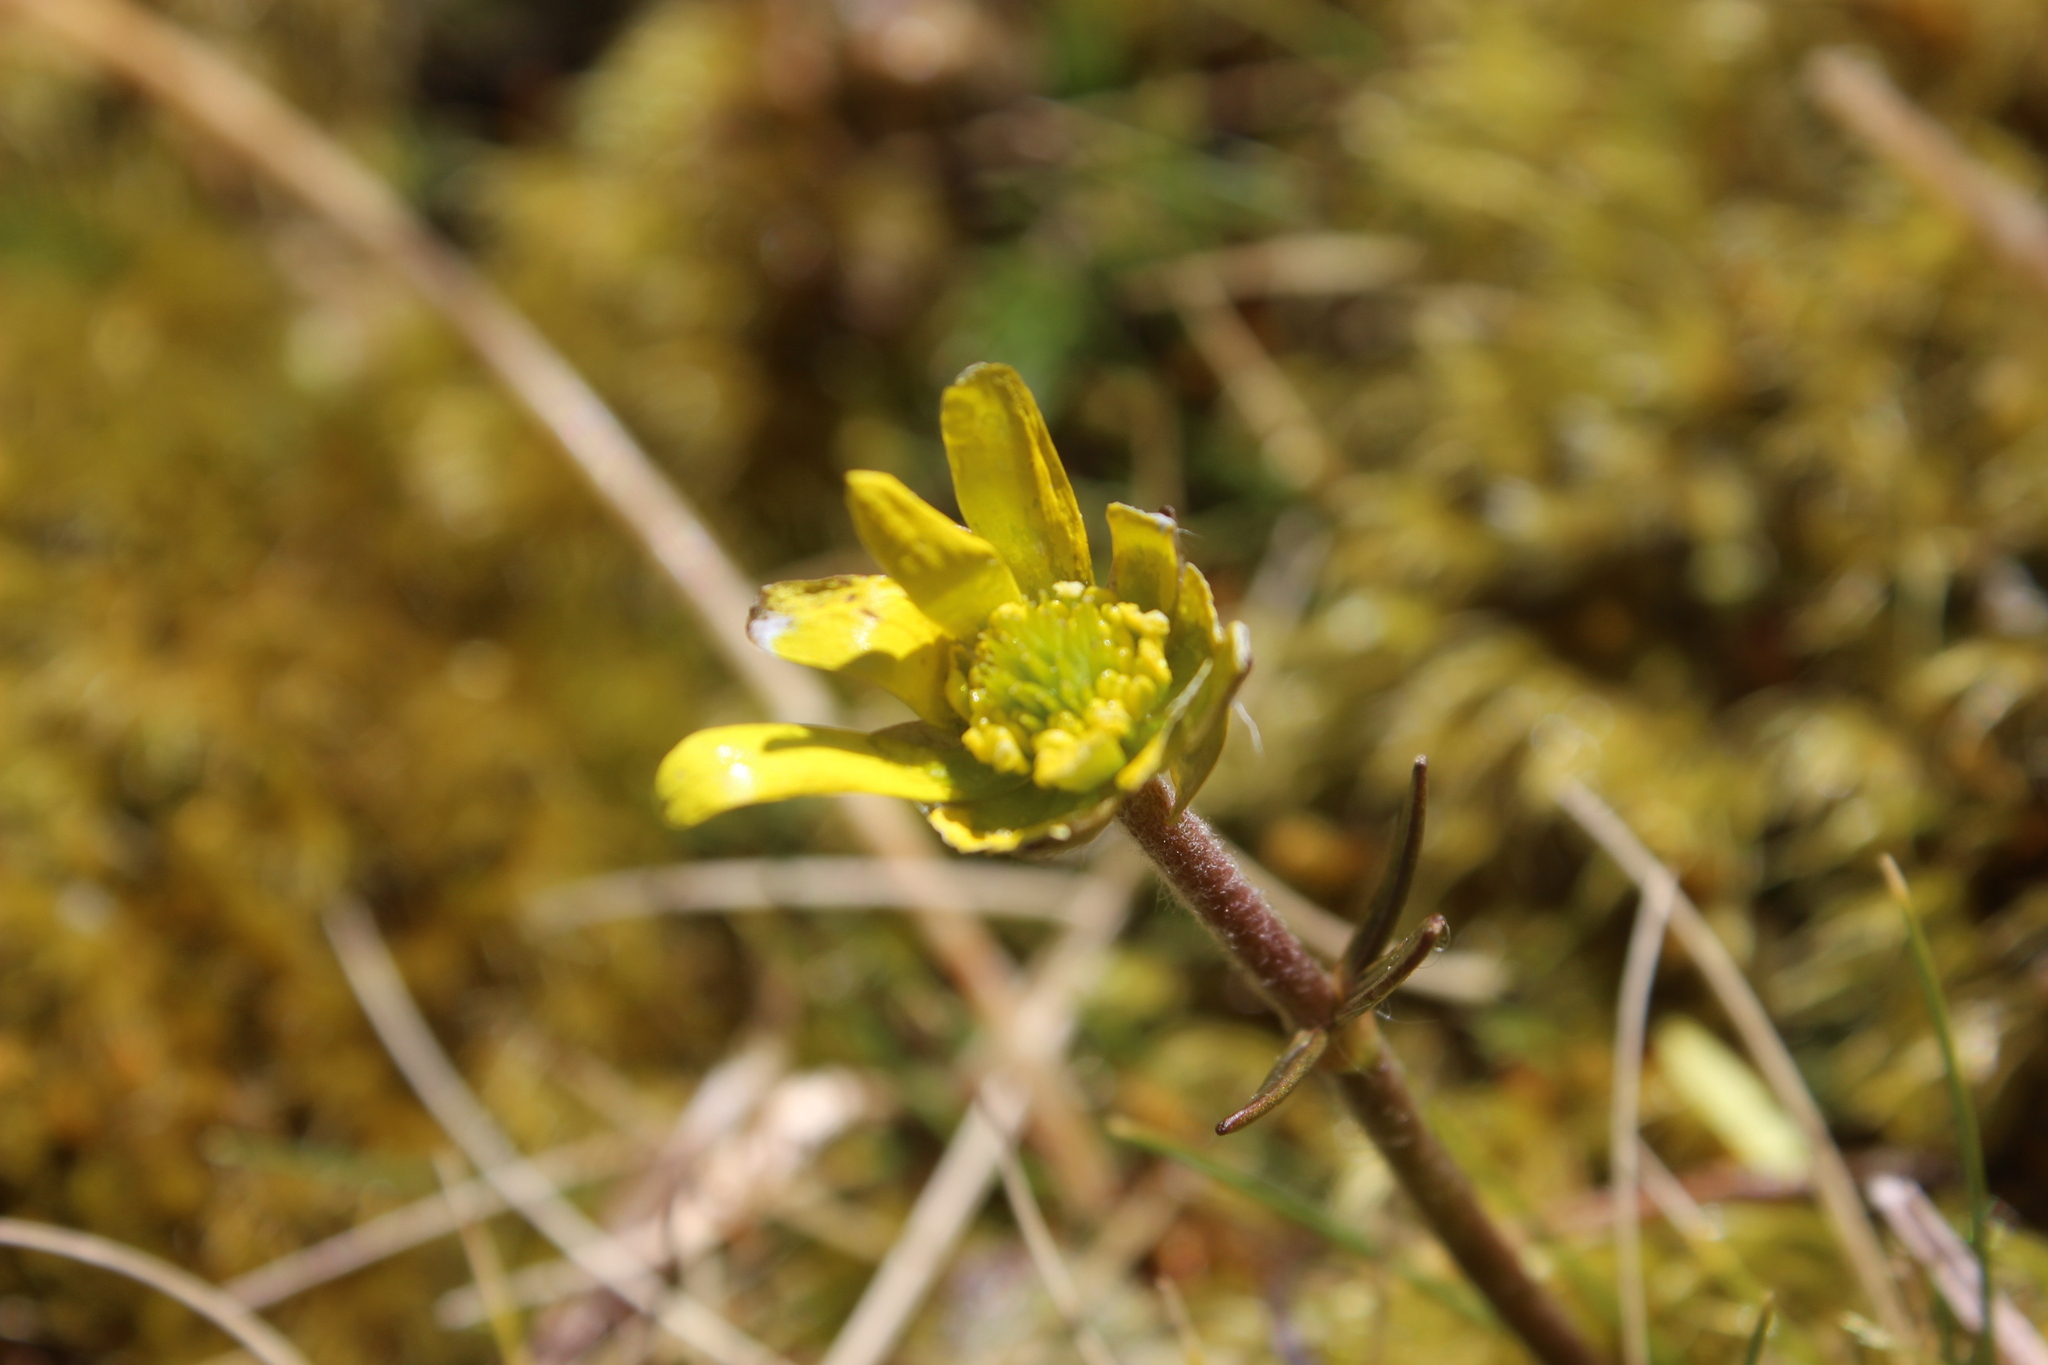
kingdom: Plantae
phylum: Tracheophyta
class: Magnoliopsida
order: Ranunculales
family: Ranunculaceae
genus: Ranunculus
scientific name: Ranunculus verticillatus
